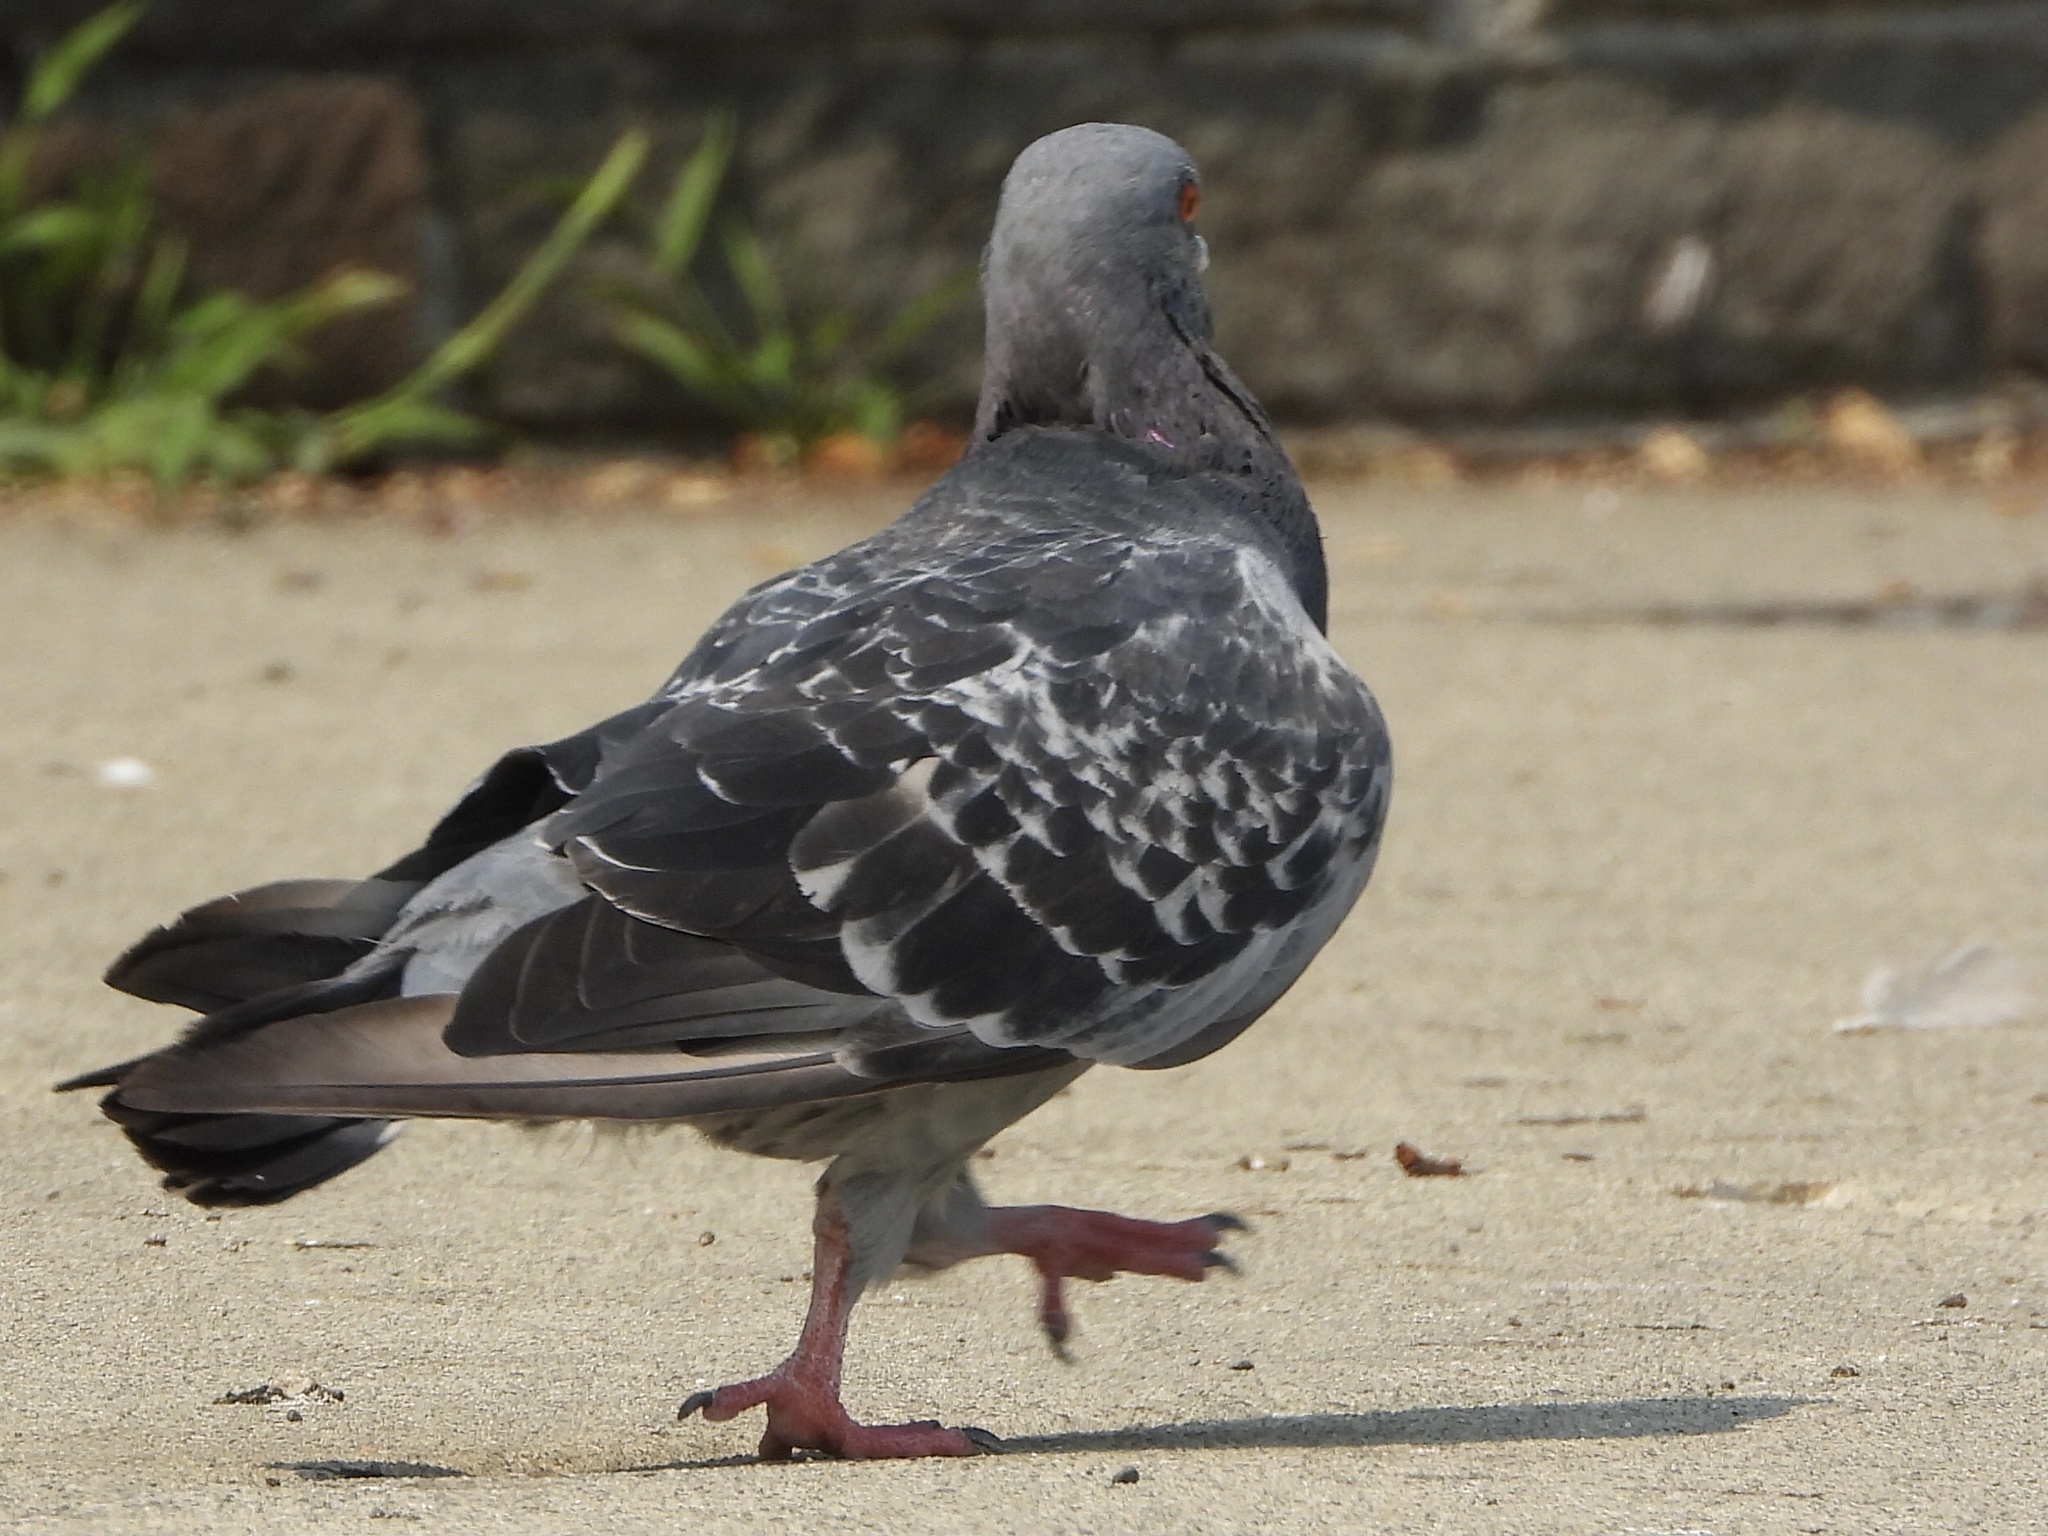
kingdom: Animalia
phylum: Chordata
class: Aves
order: Columbiformes
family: Columbidae
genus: Columba
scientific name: Columba livia
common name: Rock pigeon
